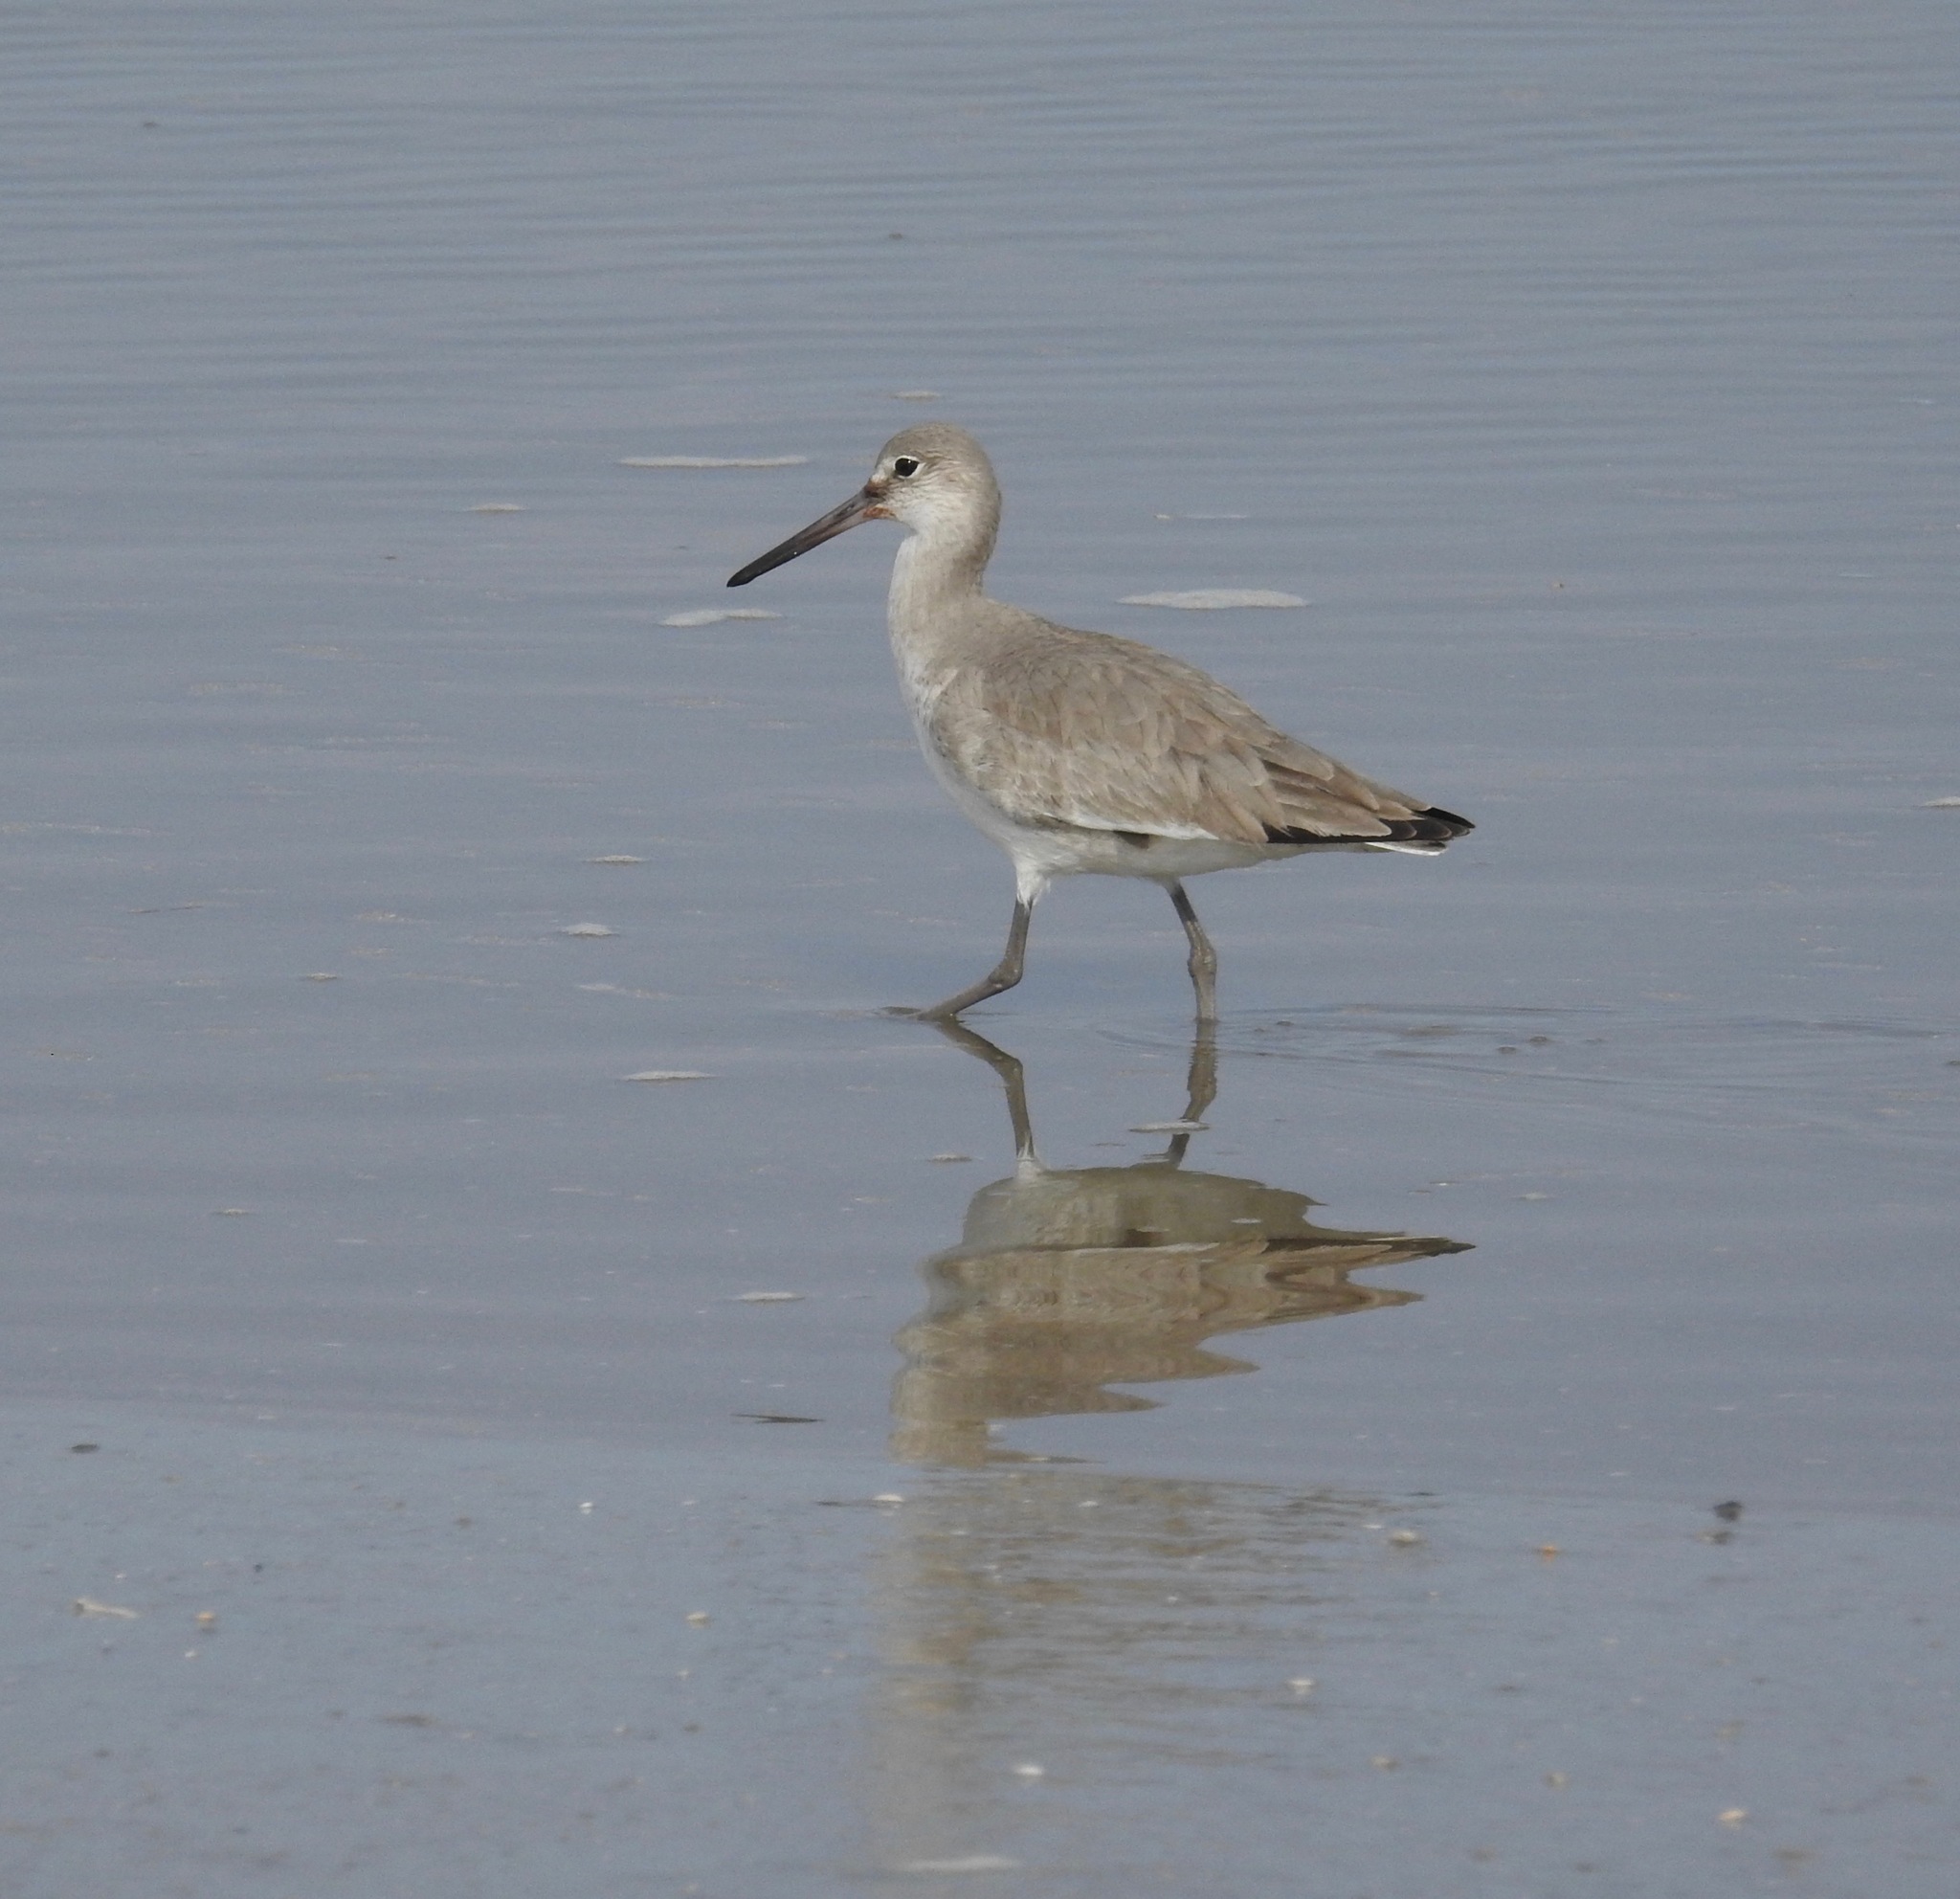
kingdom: Animalia
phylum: Chordata
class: Aves
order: Charadriiformes
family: Scolopacidae
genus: Tringa
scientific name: Tringa semipalmata
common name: Willet
